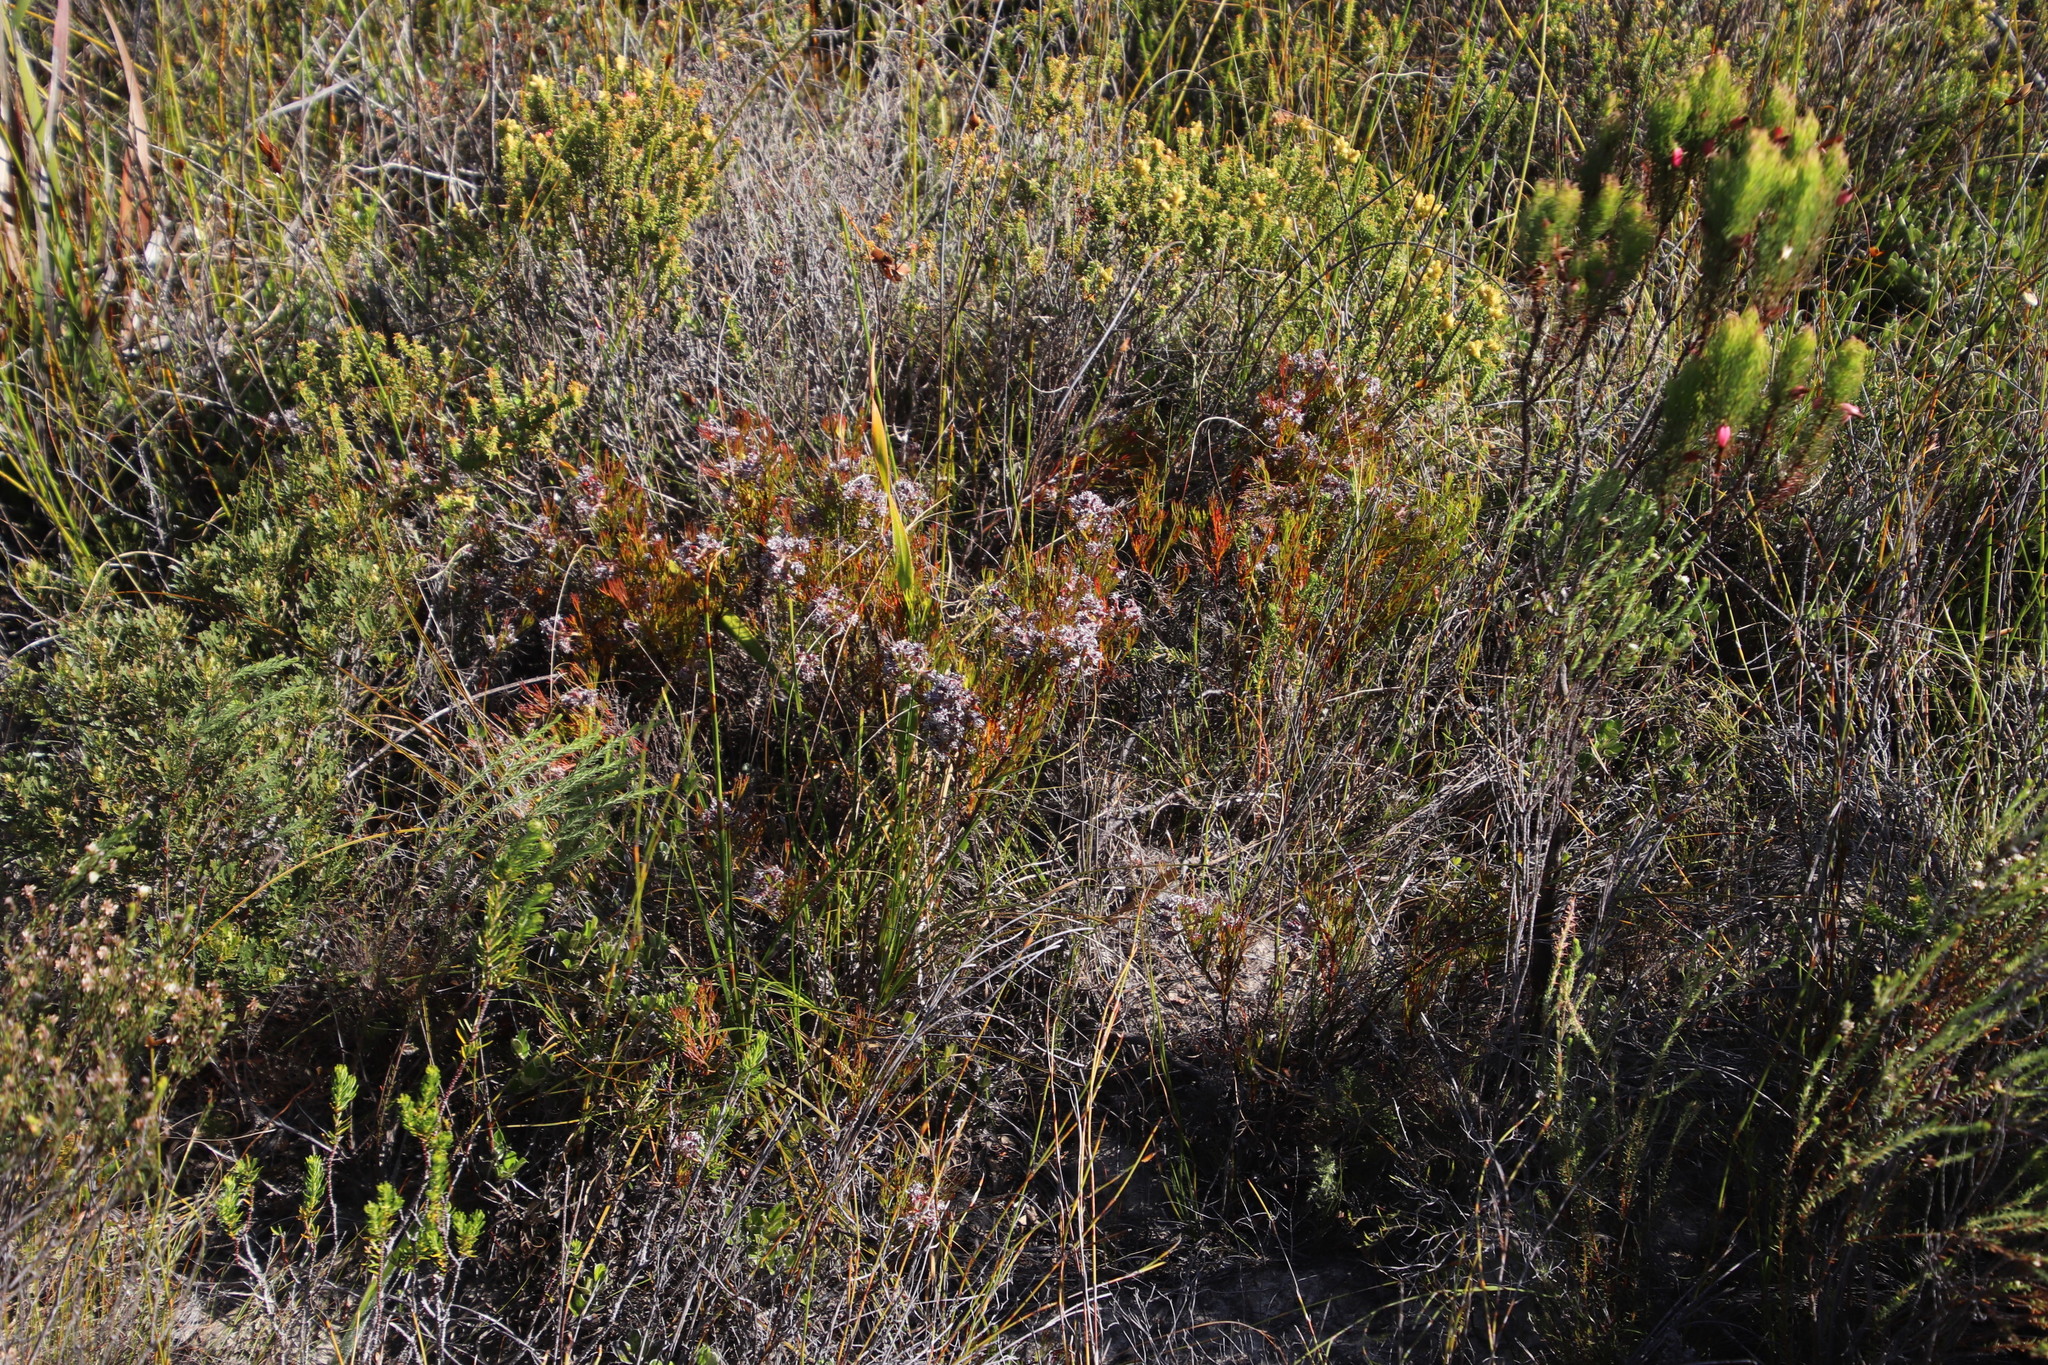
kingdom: Plantae
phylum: Tracheophyta
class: Magnoliopsida
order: Proteales
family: Proteaceae
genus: Serruria
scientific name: Serruria rubricaulis
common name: Red-stem spiderhead
